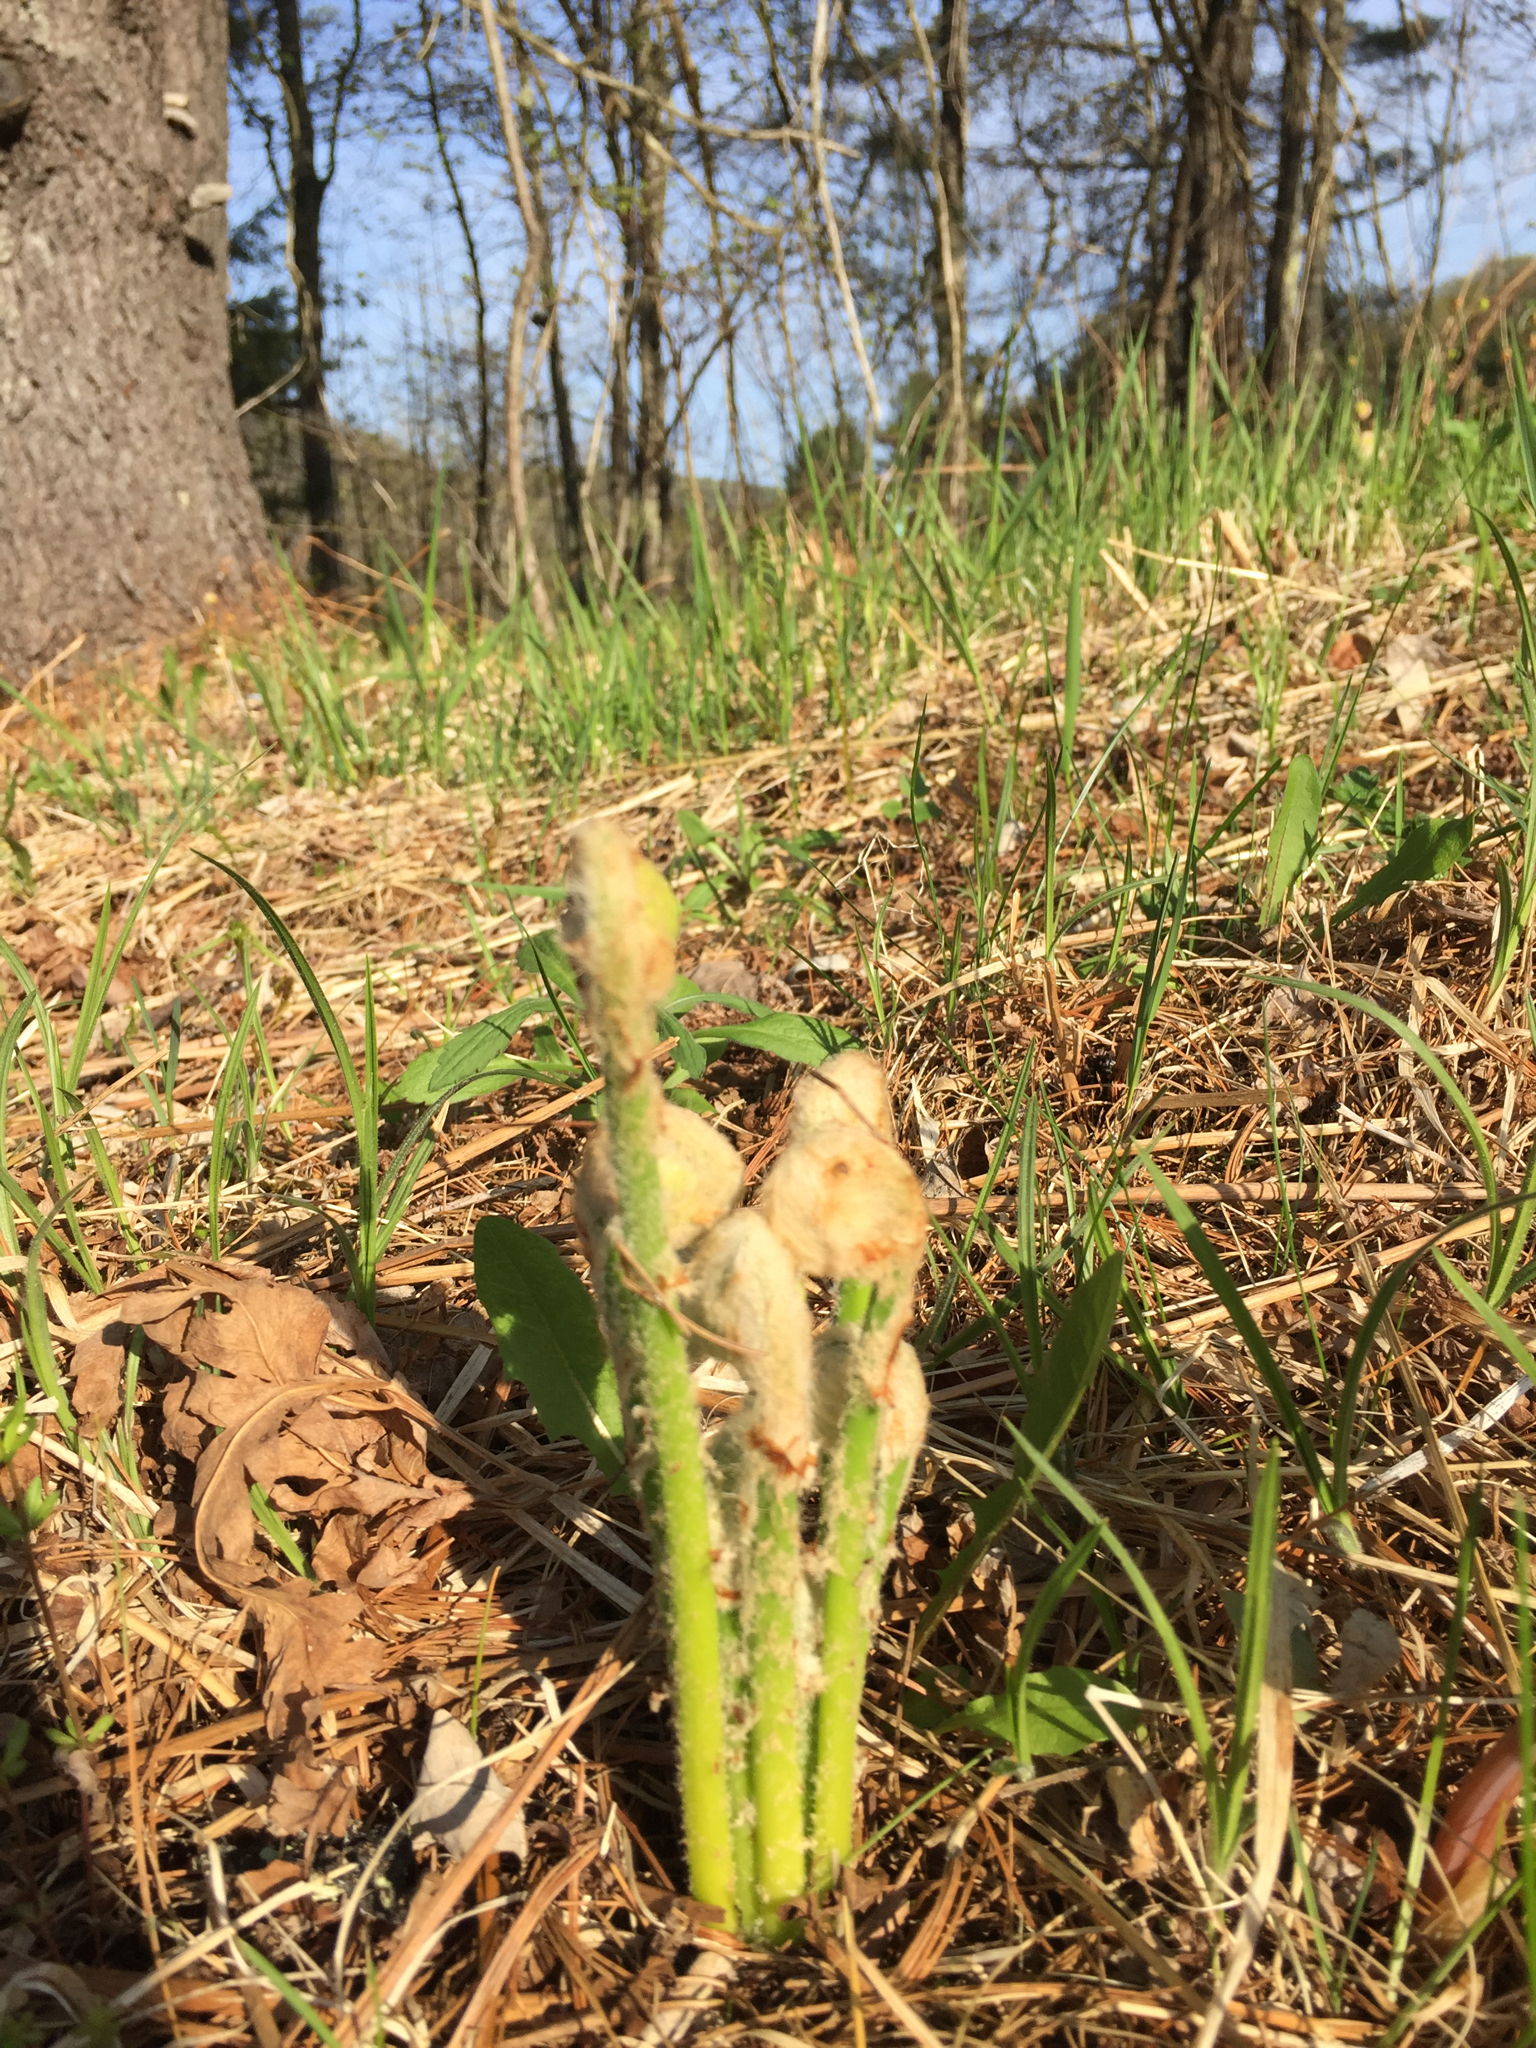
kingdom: Plantae
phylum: Tracheophyta
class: Polypodiopsida
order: Osmundales
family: Osmundaceae
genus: Osmundastrum
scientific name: Osmundastrum cinnamomeum
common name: Cinnamon fern
